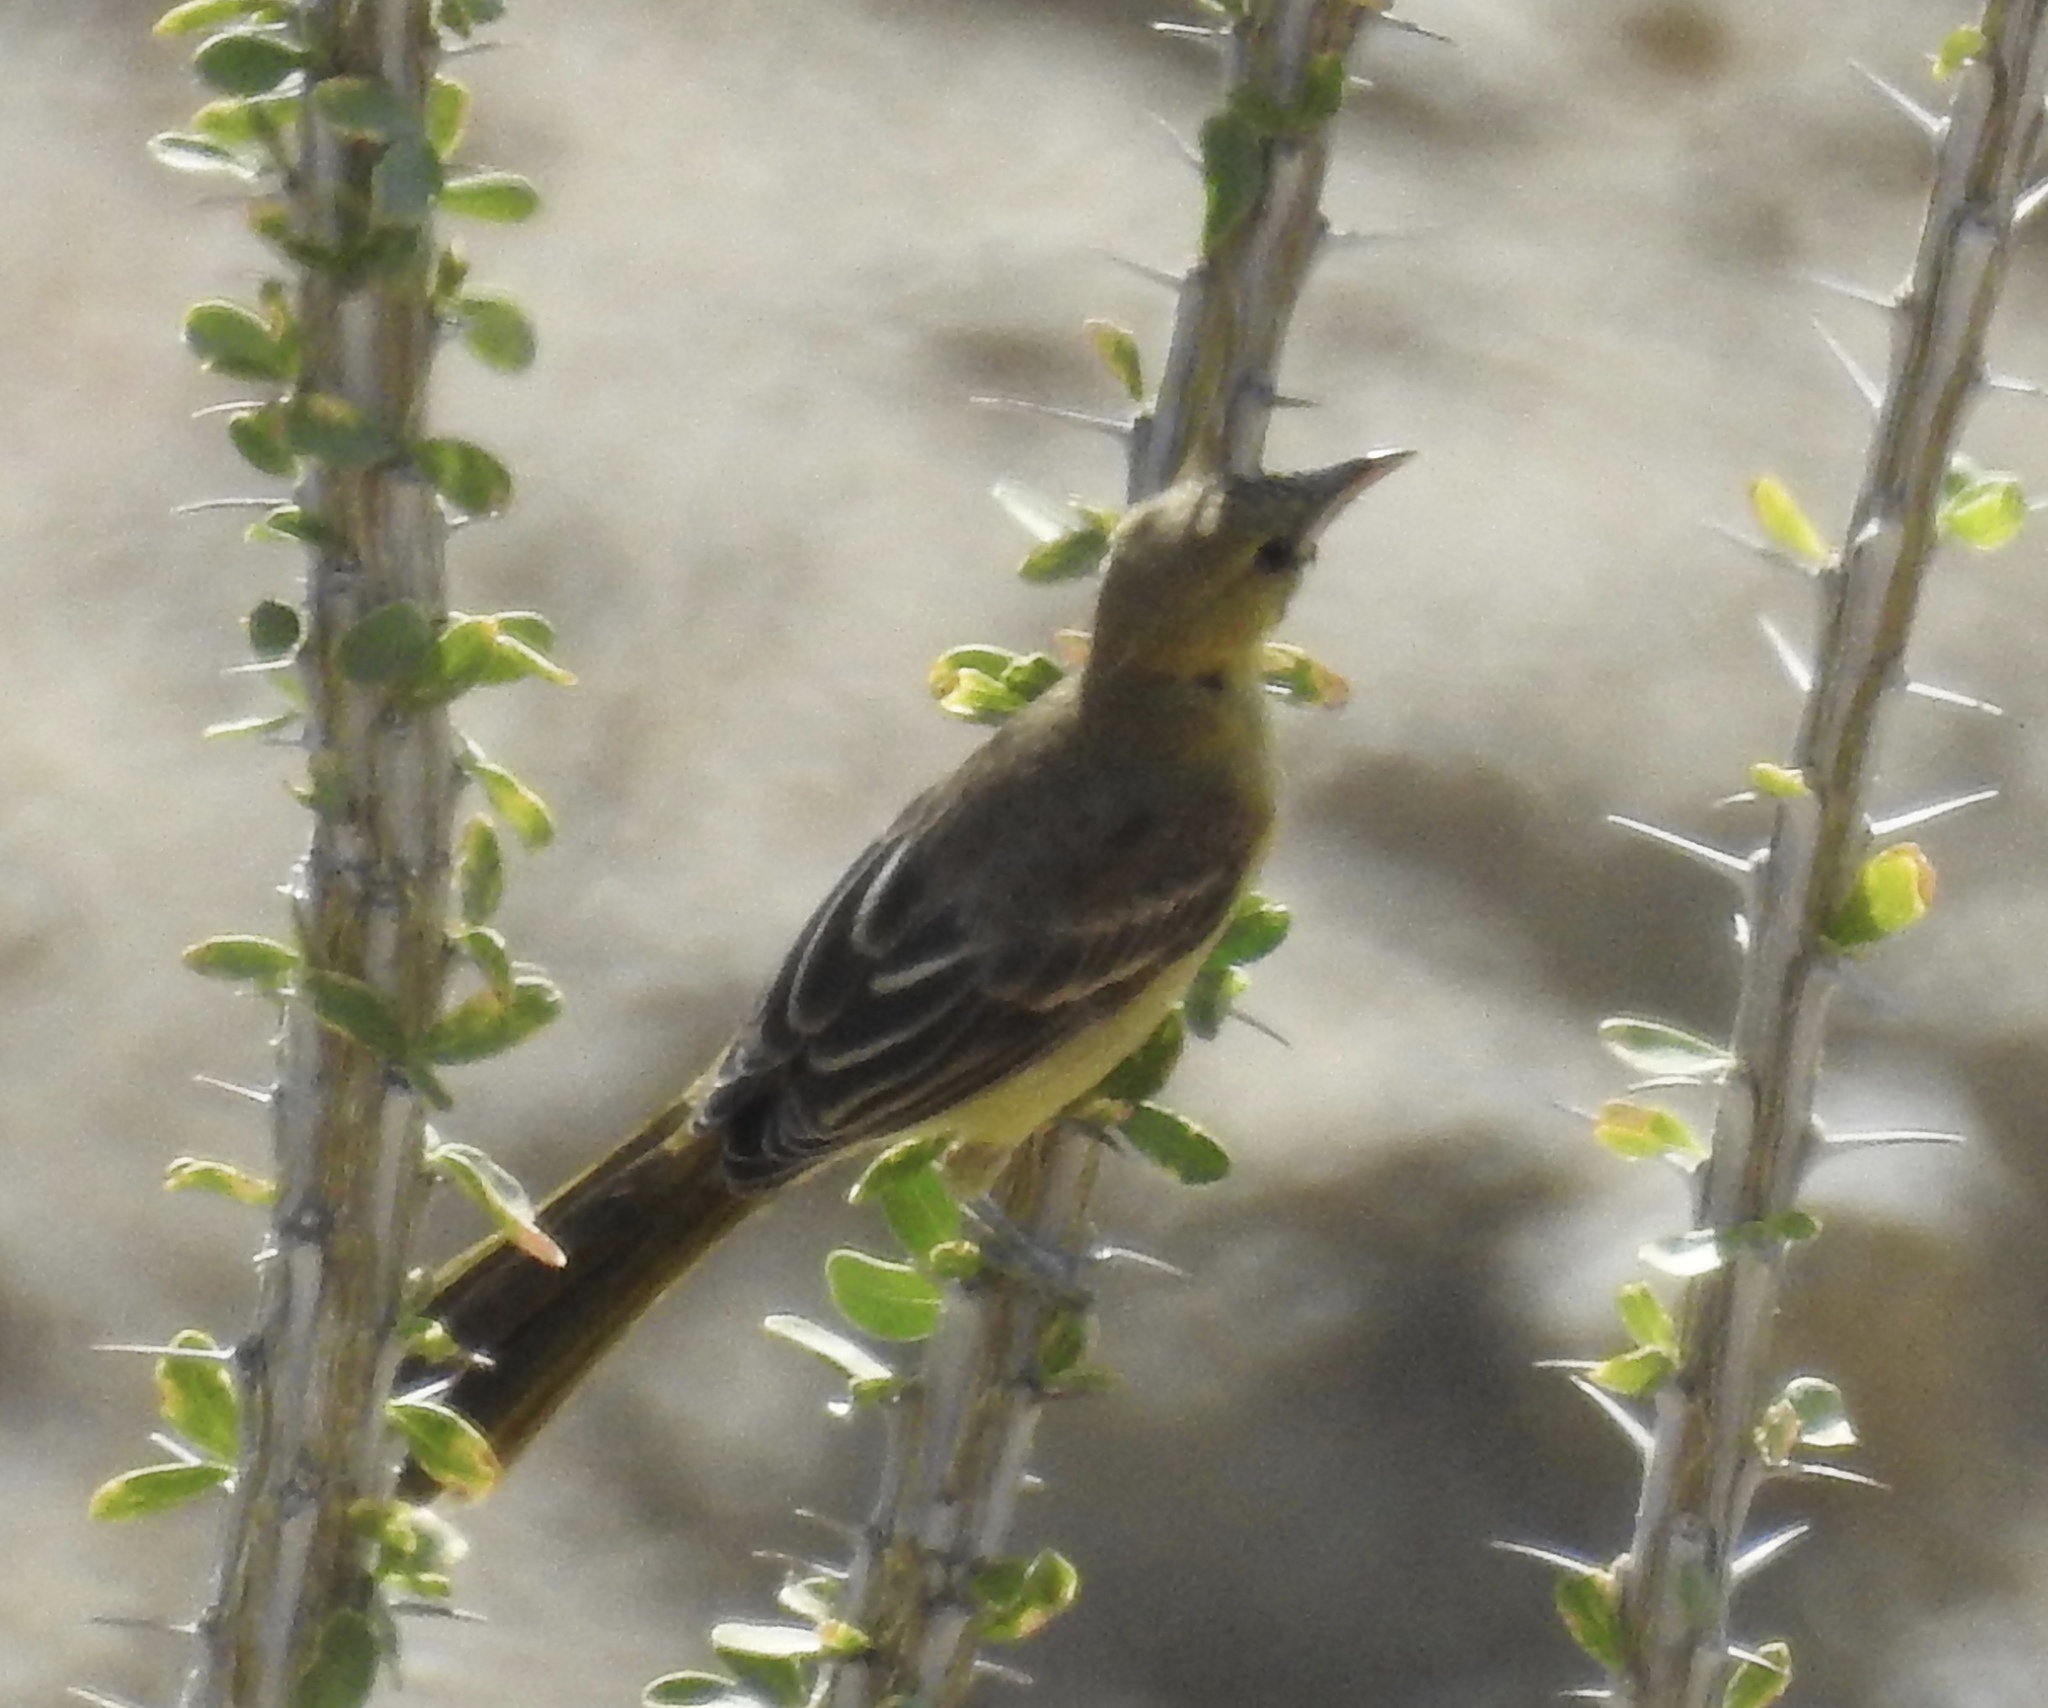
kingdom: Animalia
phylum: Chordata
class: Aves
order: Passeriformes
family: Icteridae
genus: Icterus
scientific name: Icterus cucullatus
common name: Hooded oriole
